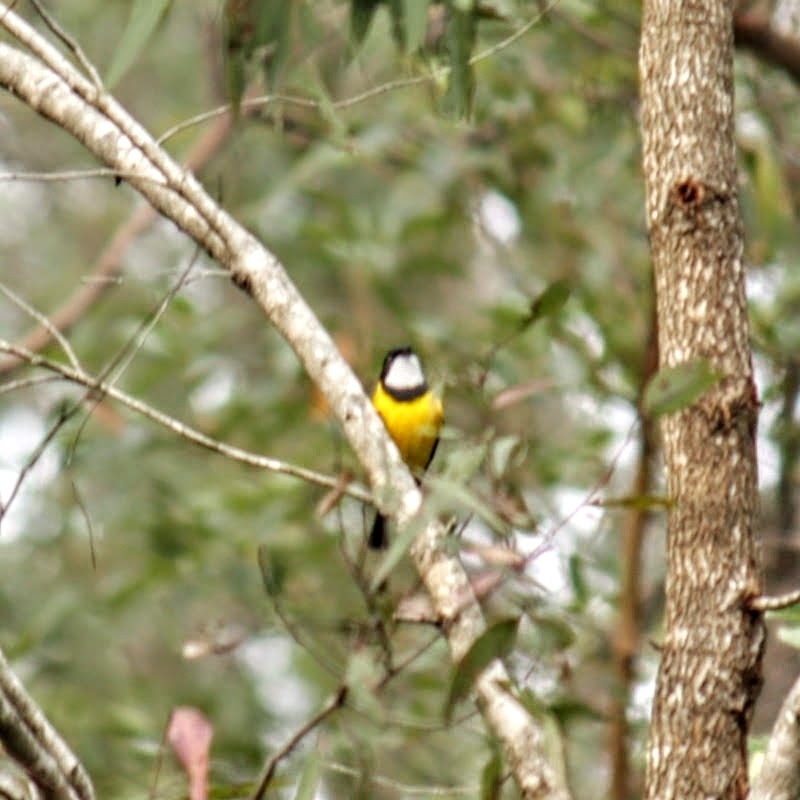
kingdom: Animalia
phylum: Chordata
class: Aves
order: Passeriformes
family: Pachycephalidae
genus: Pachycephala
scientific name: Pachycephala pectoralis
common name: Australian golden whistler
